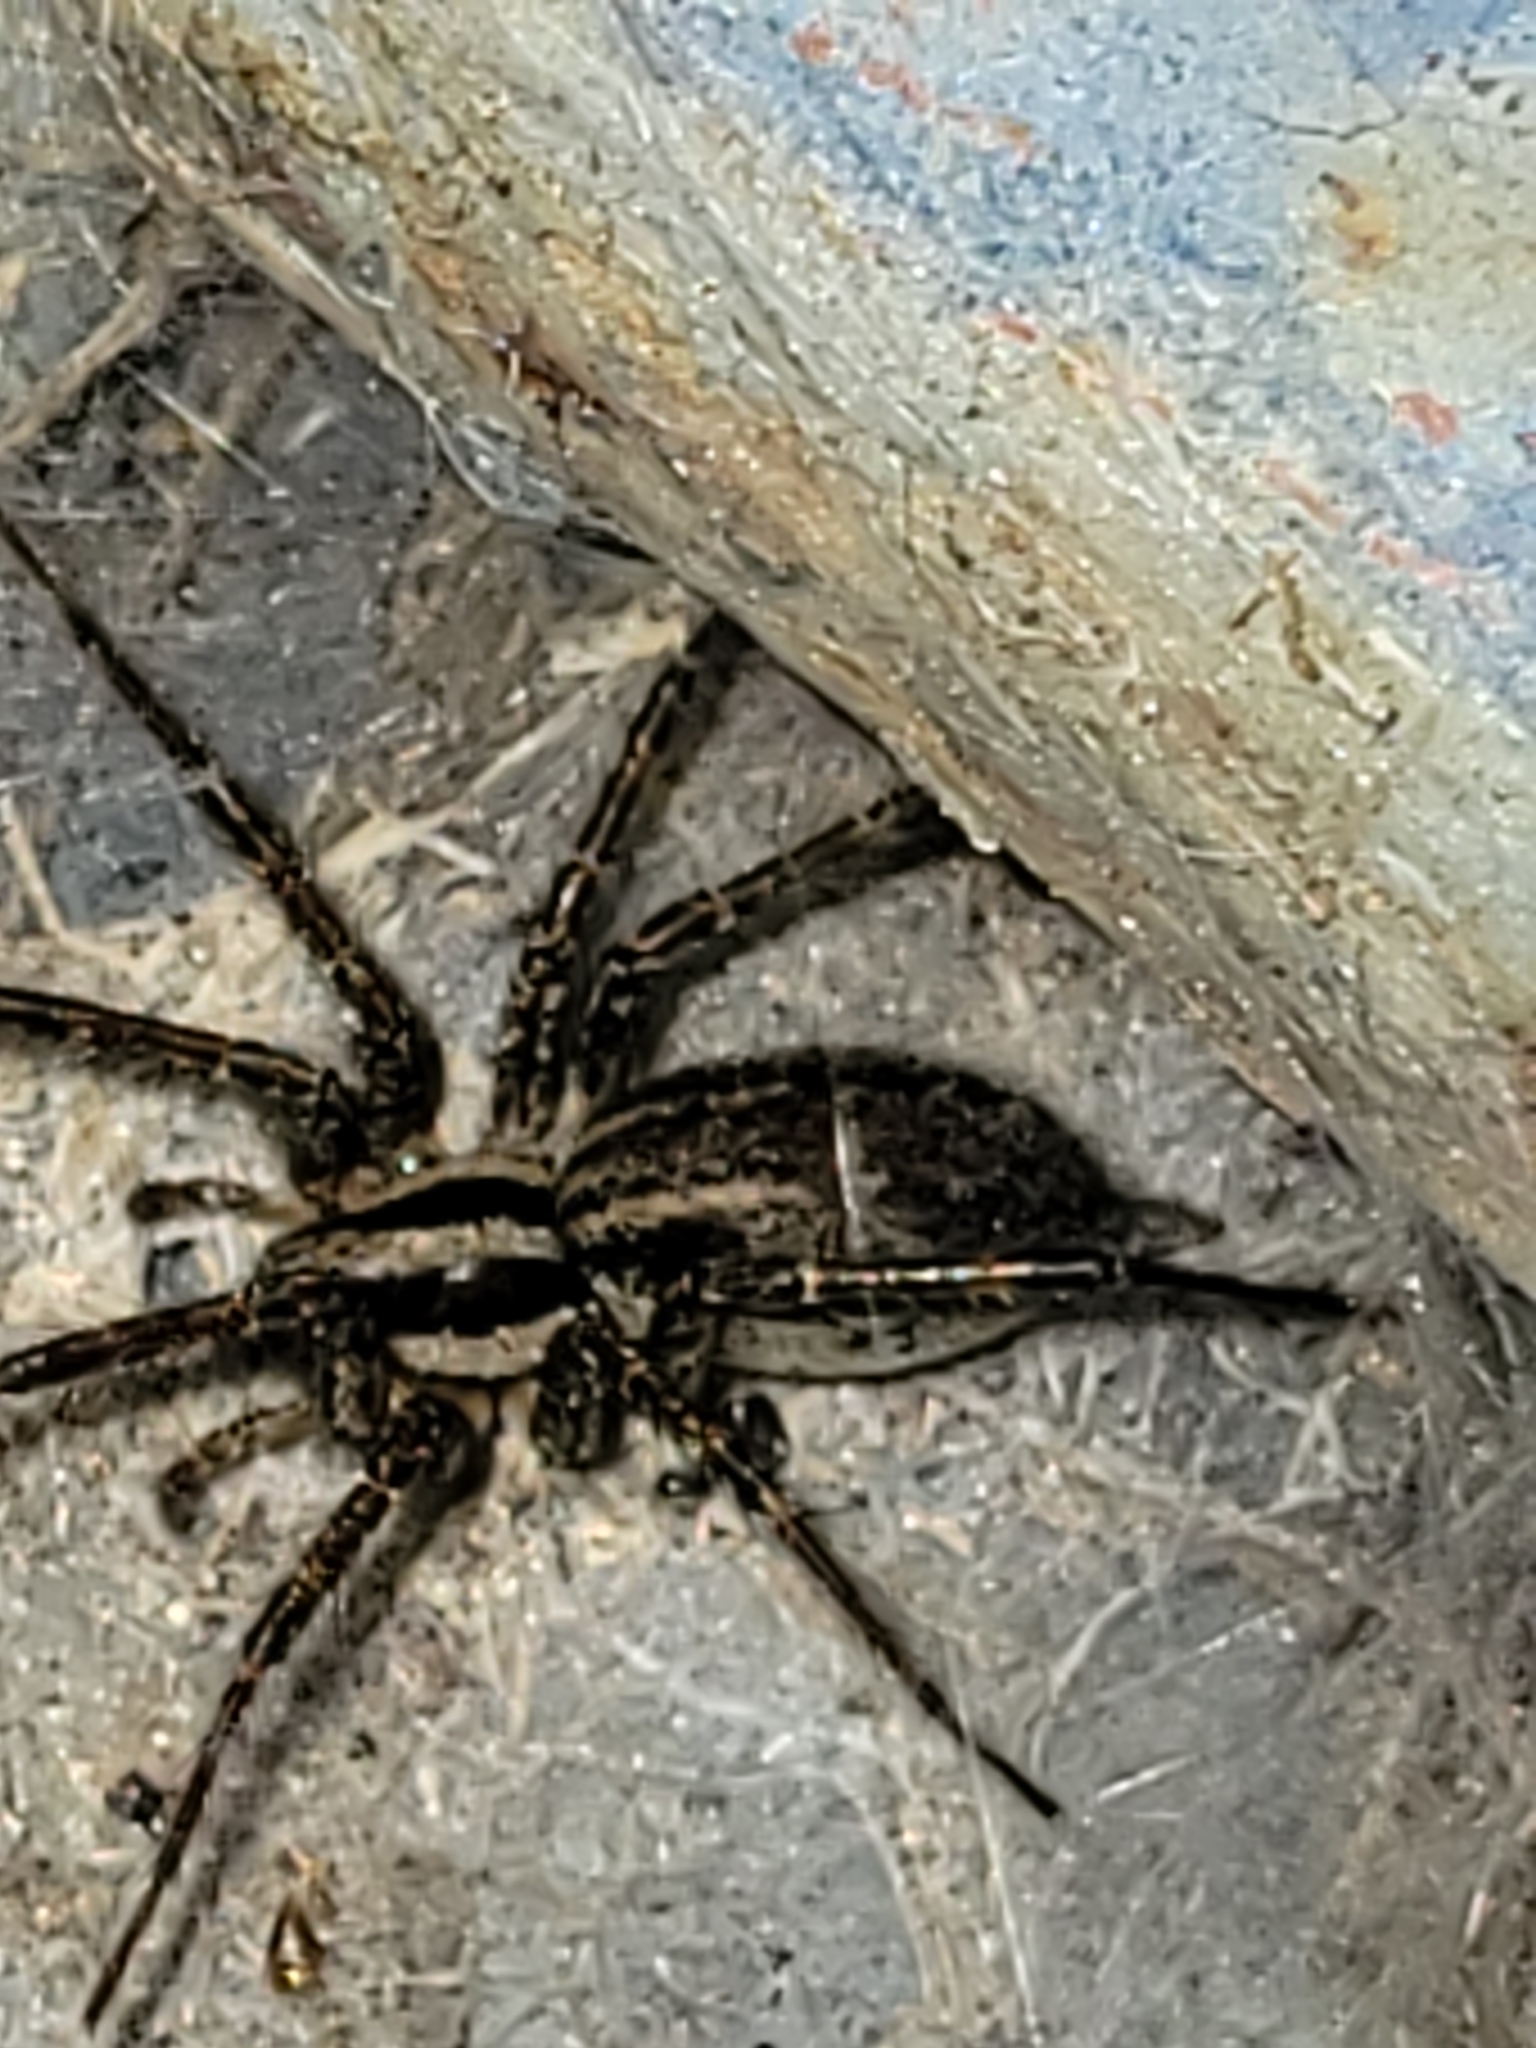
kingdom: Animalia
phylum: Arthropoda
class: Arachnida
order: Araneae
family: Agelenidae
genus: Agelenopsis
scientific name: Agelenopsis
